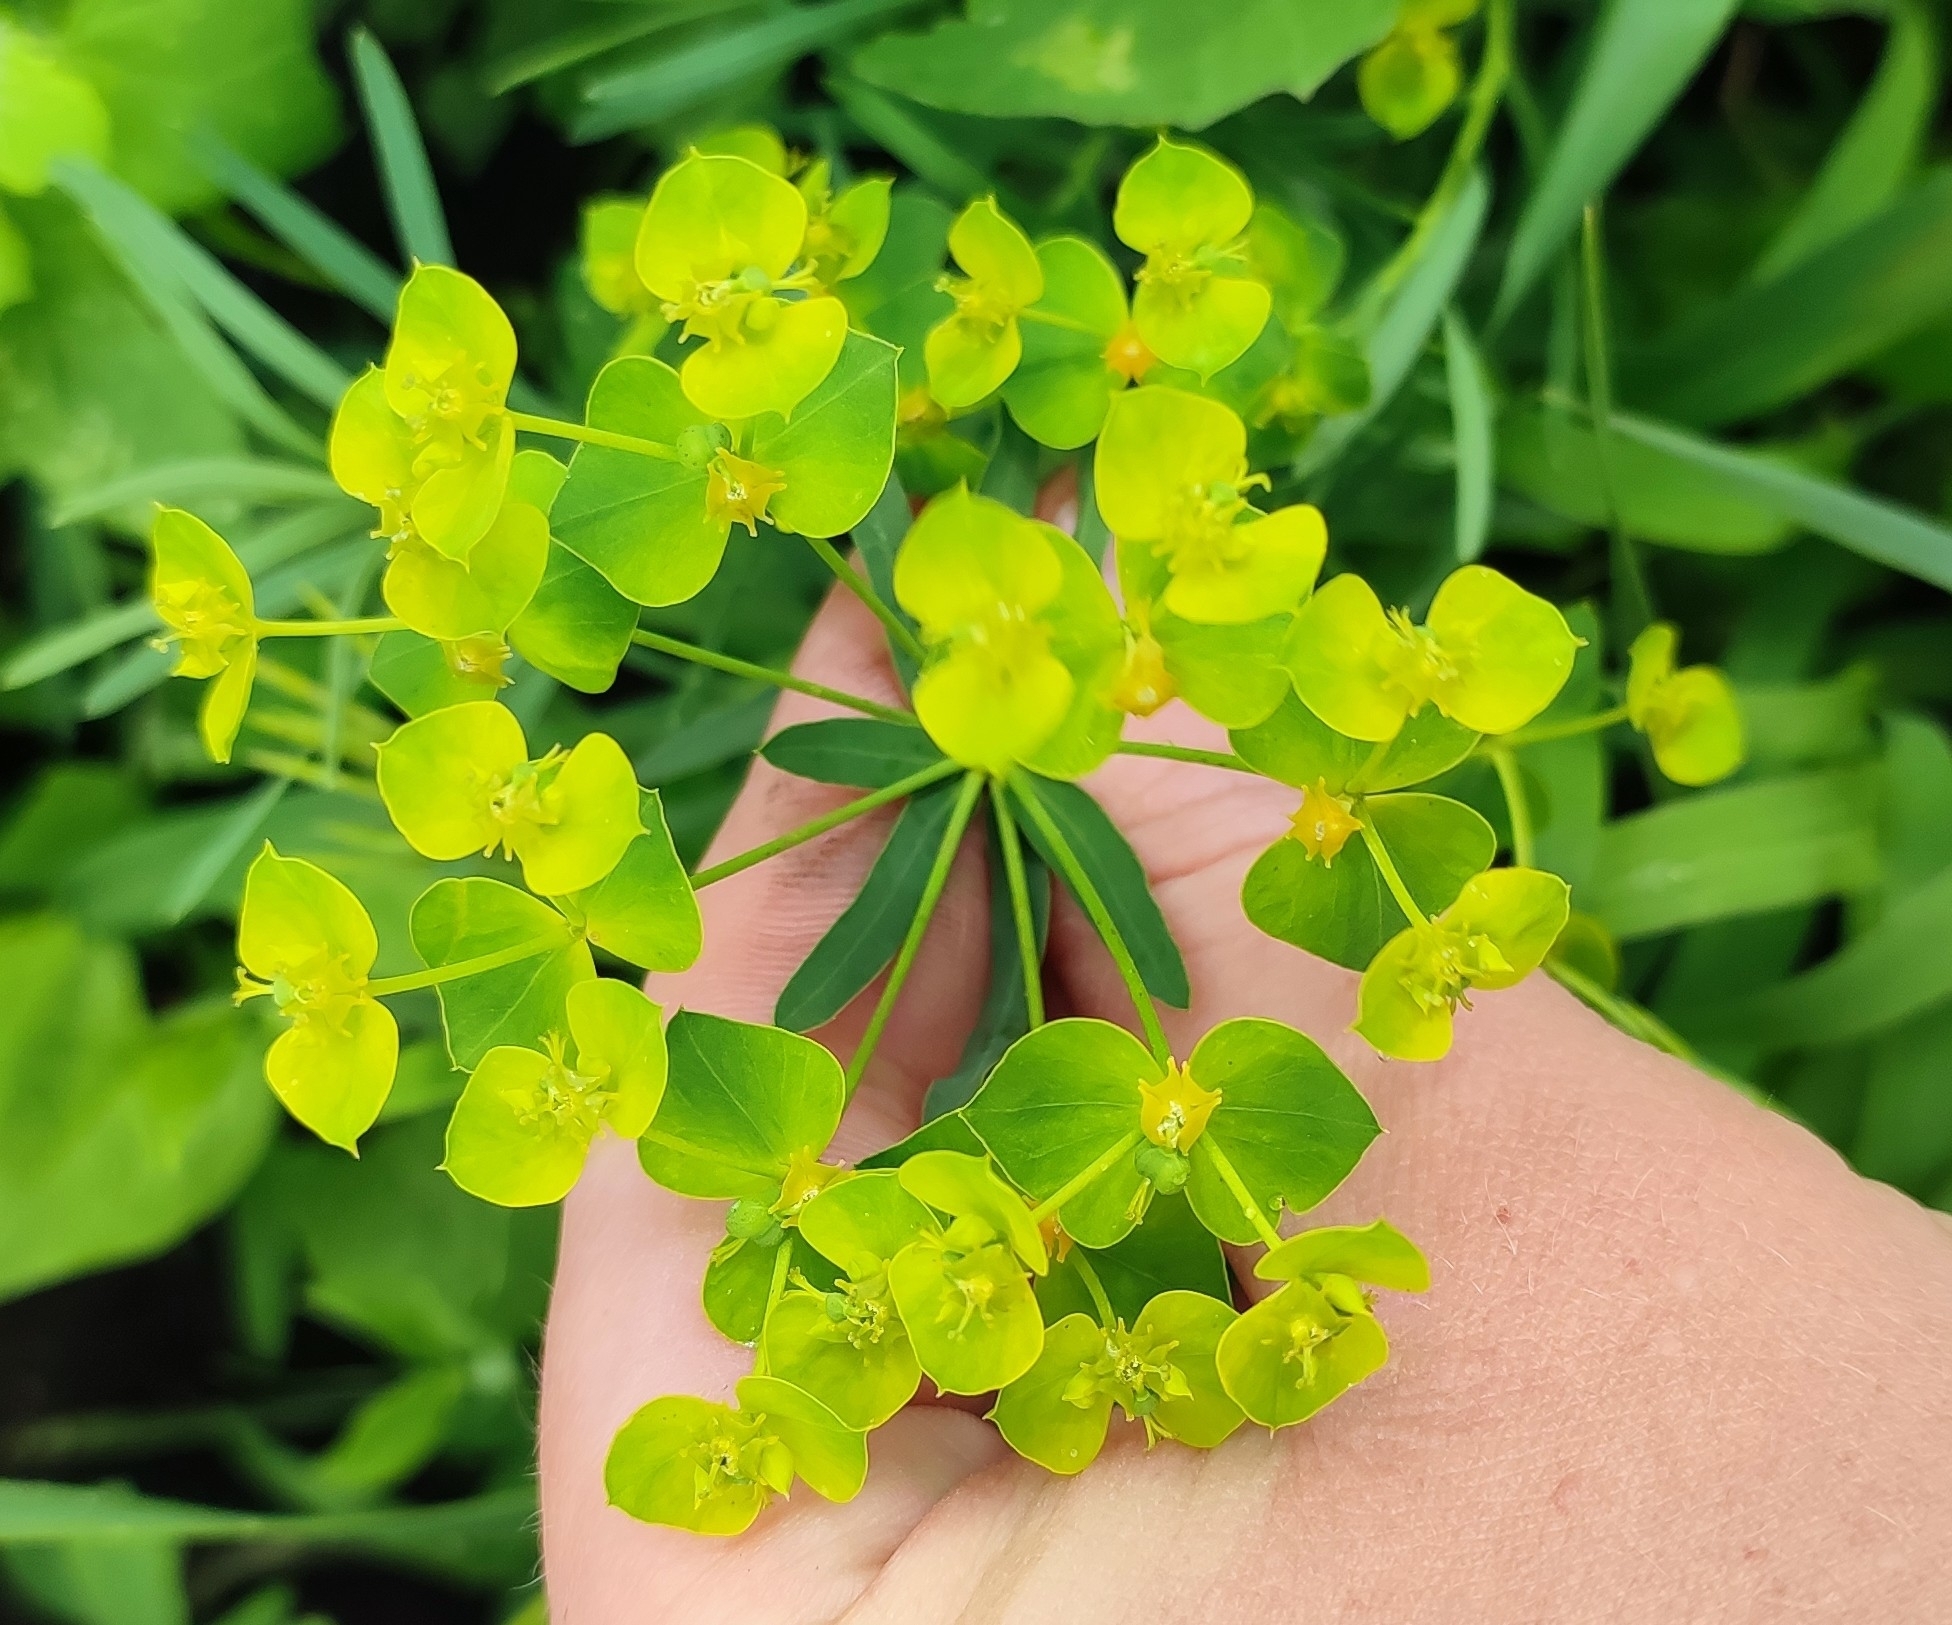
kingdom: Plantae
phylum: Tracheophyta
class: Magnoliopsida
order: Malpighiales
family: Euphorbiaceae
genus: Euphorbia
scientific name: Euphorbia virgata
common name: Leafy spurge
